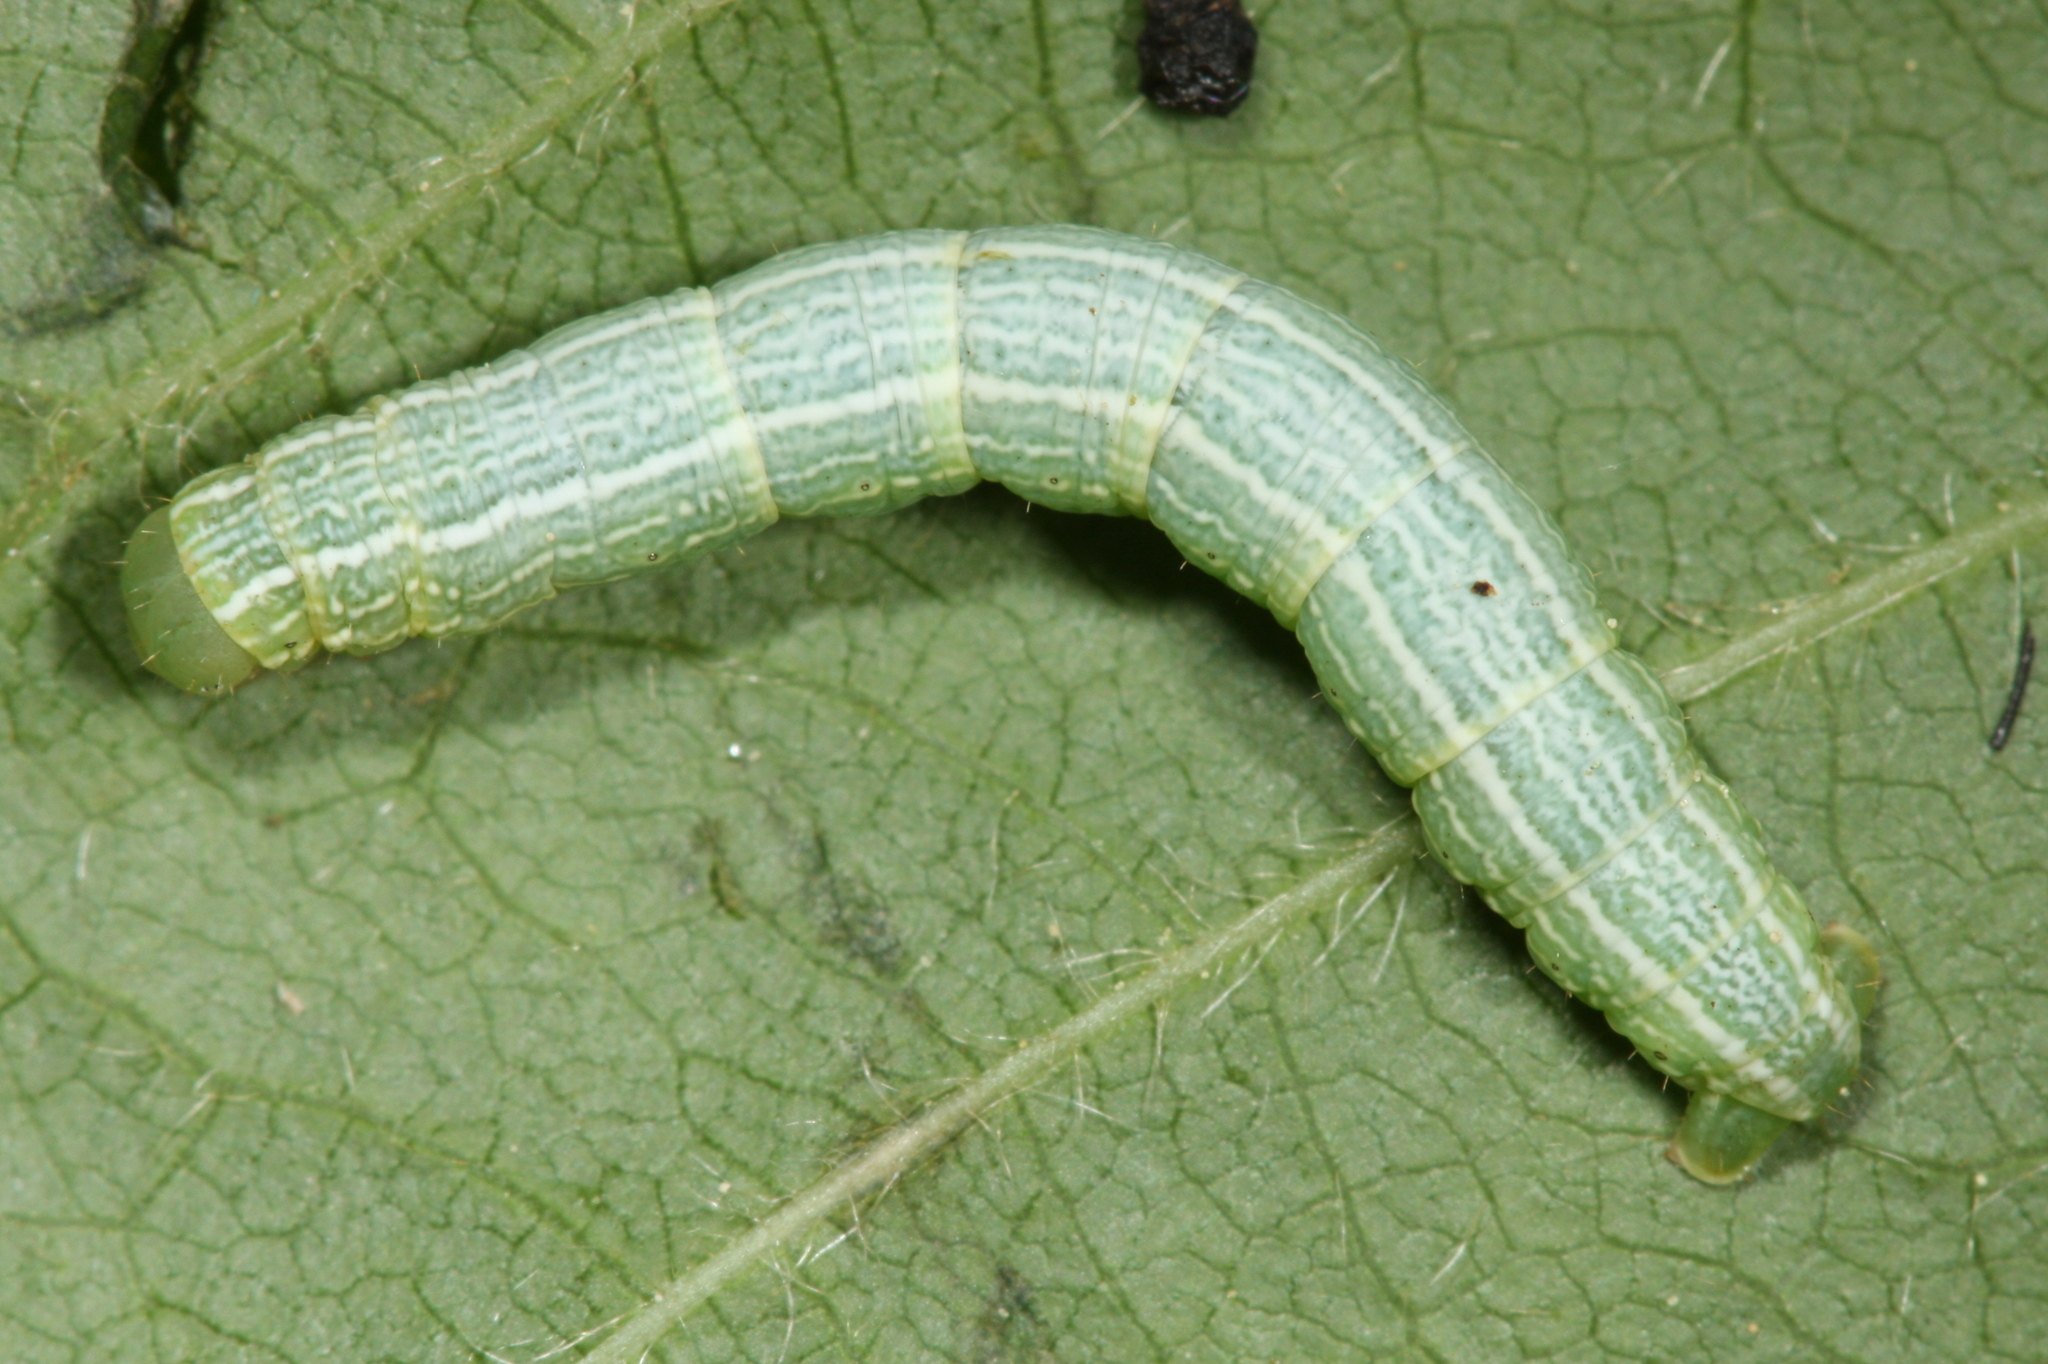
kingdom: Animalia
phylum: Arthropoda
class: Insecta
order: Lepidoptera
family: Geometridae
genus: Alsophila
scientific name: Alsophila aescularia
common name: March moth
